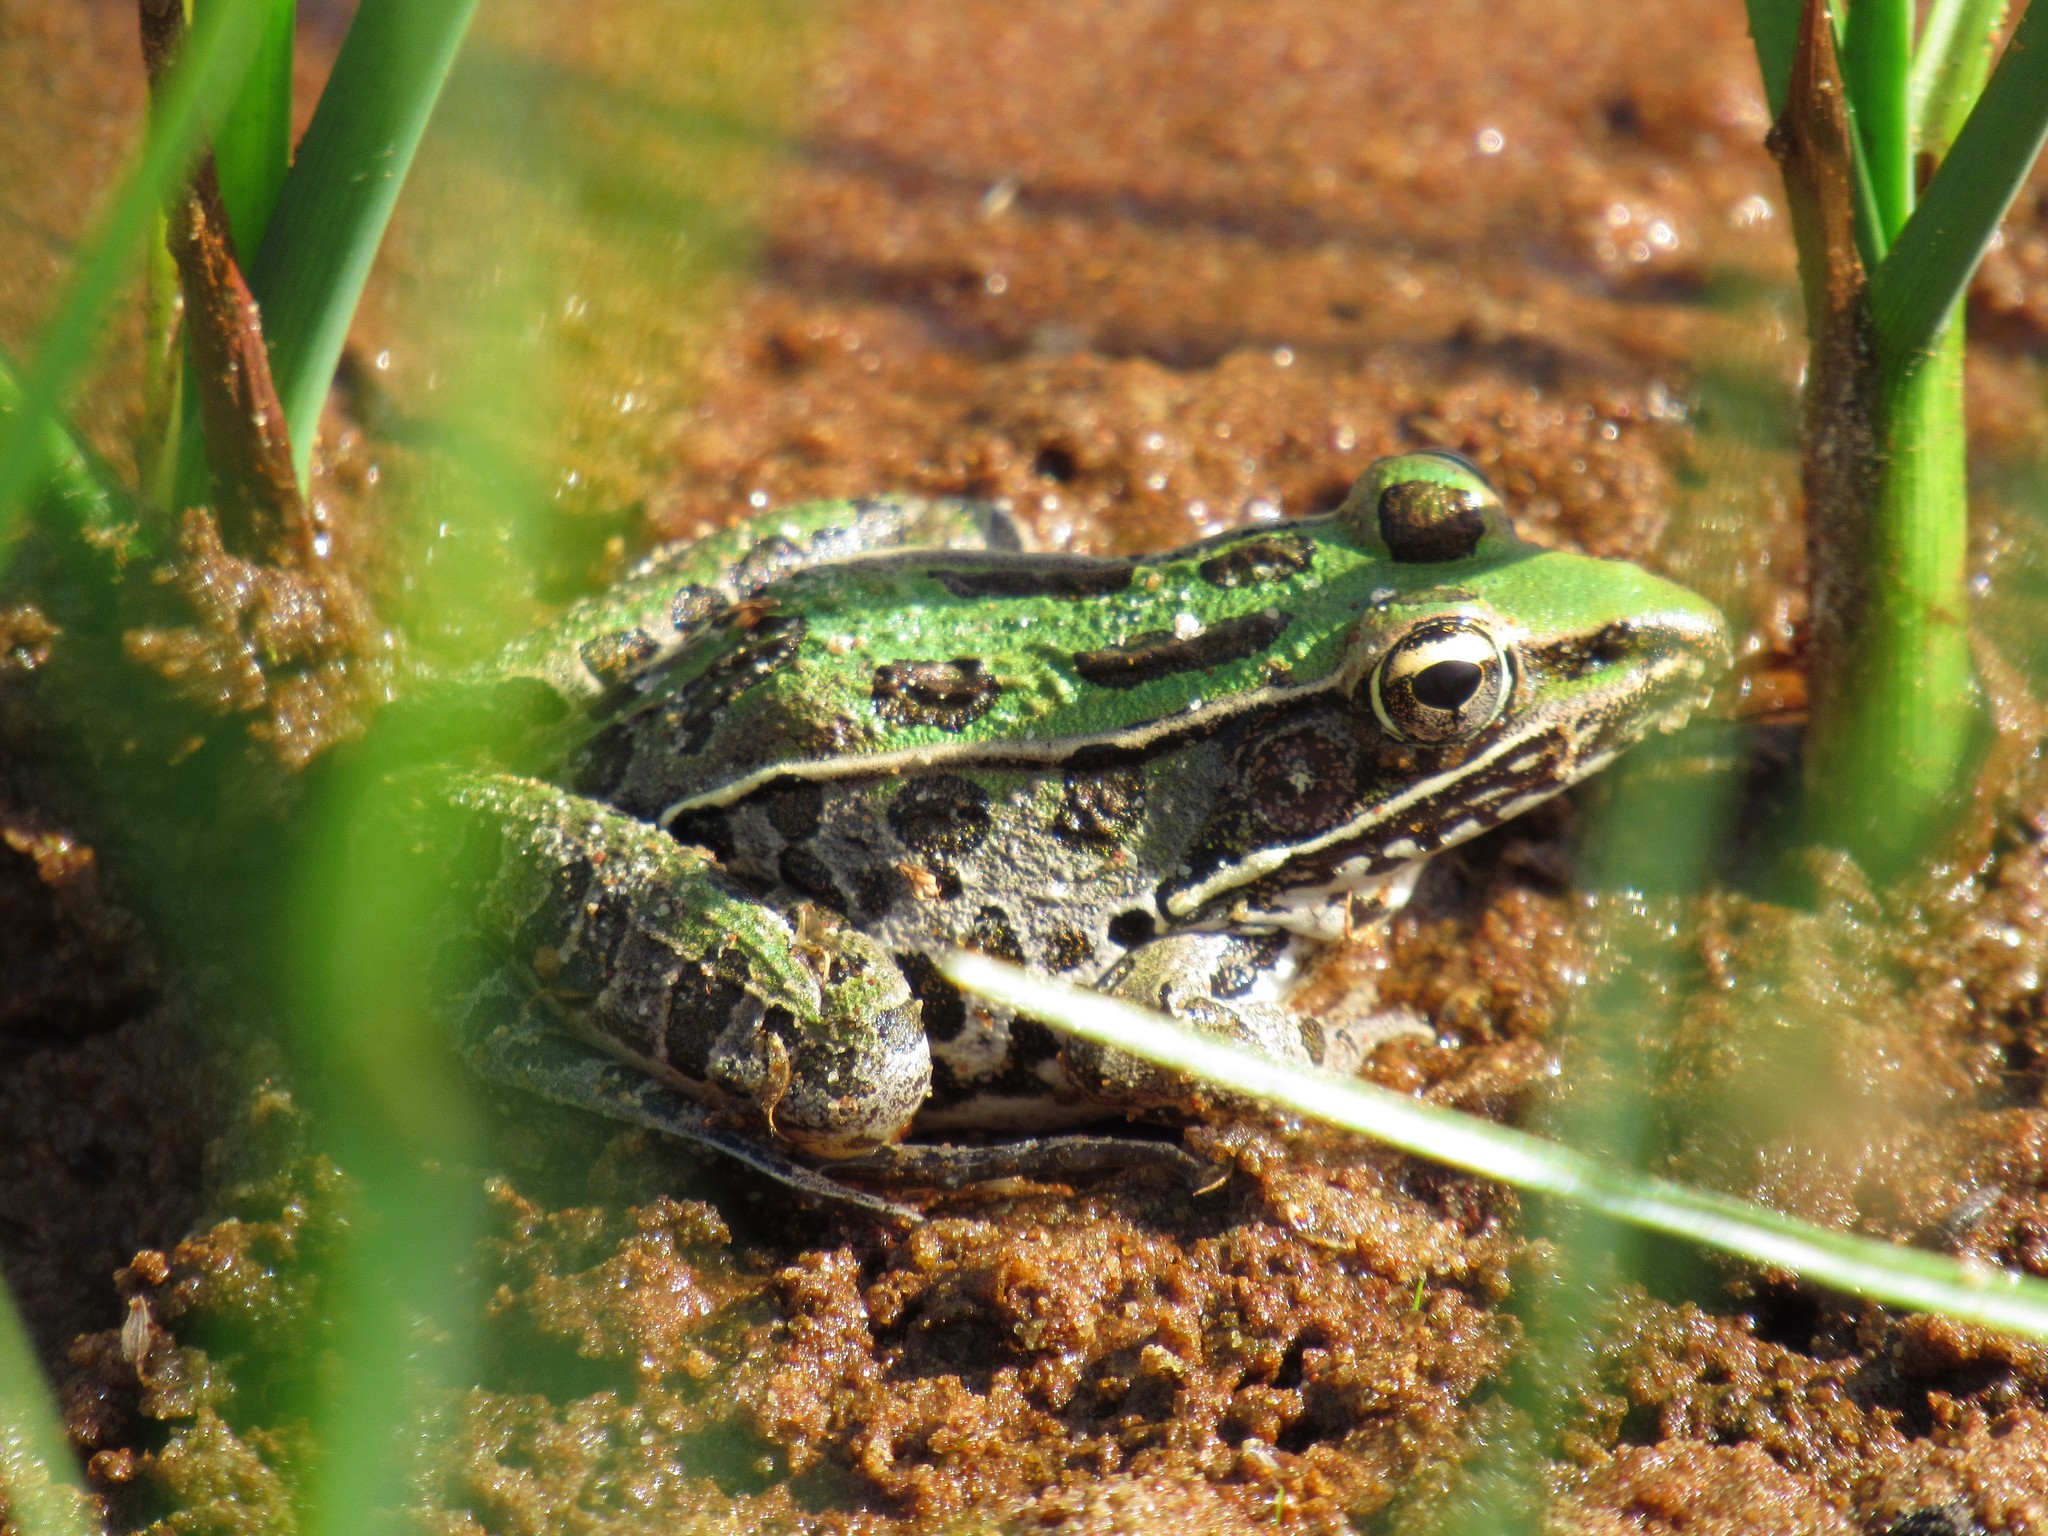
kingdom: Animalia
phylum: Chordata
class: Amphibia
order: Anura
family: Ranidae
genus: Lithobates
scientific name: Lithobates sphenocephalus
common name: Southern leopard frog
